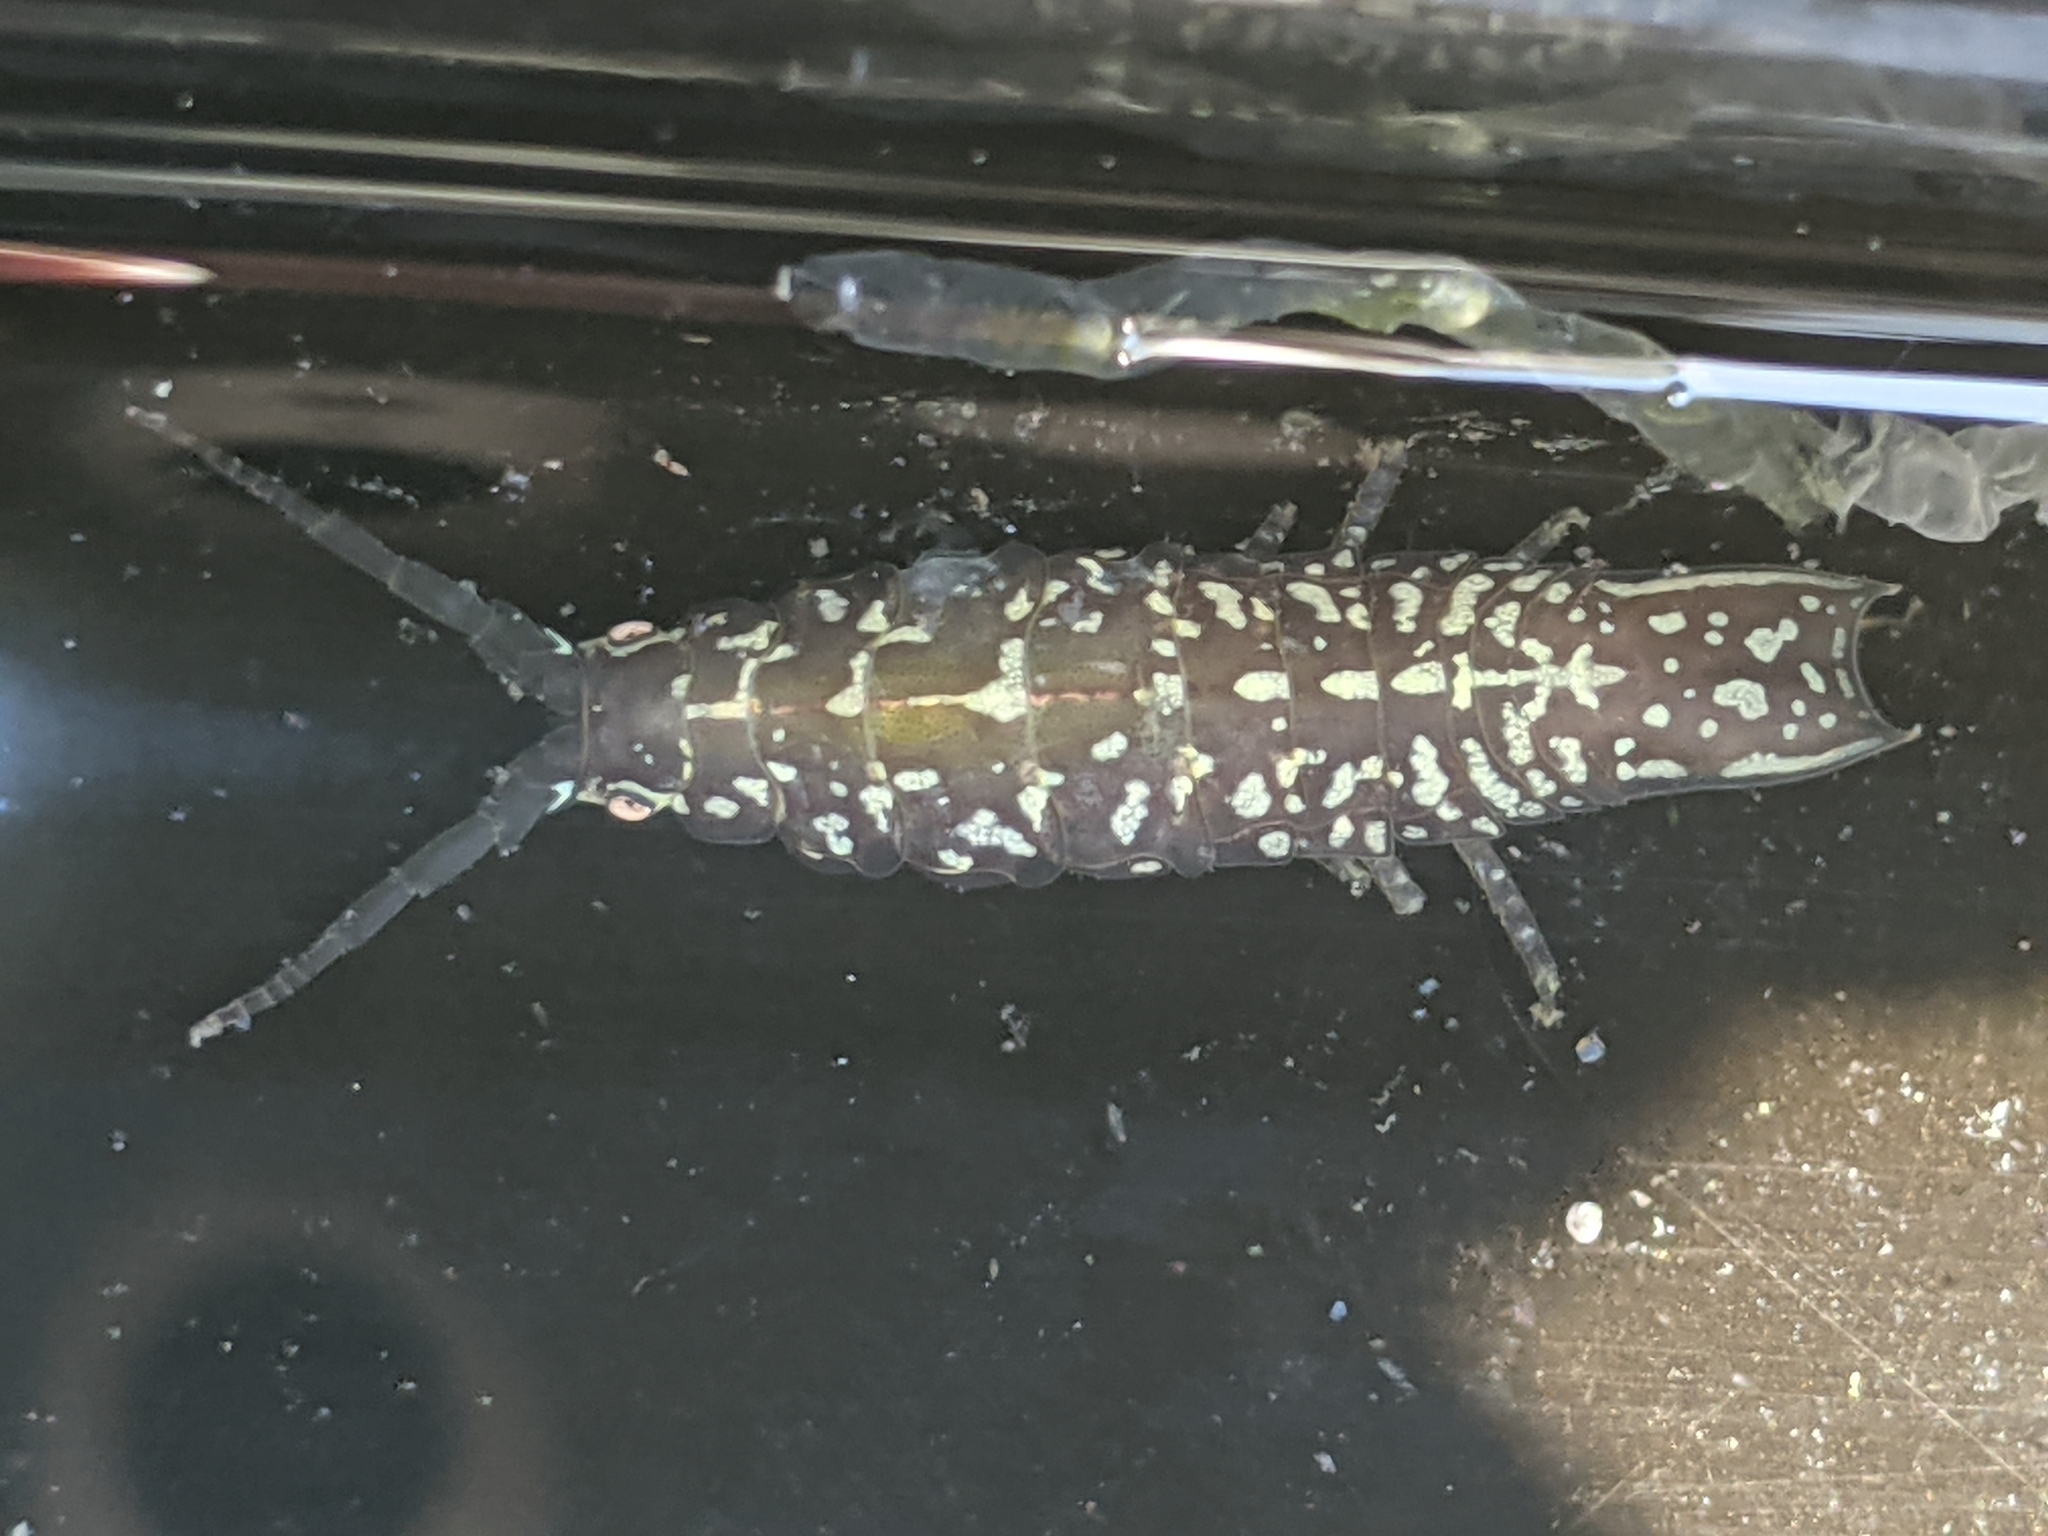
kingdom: Animalia
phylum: Arthropoda
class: Malacostraca
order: Isopoda
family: Idoteidae
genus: Pentidotea
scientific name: Pentidotea resecata
